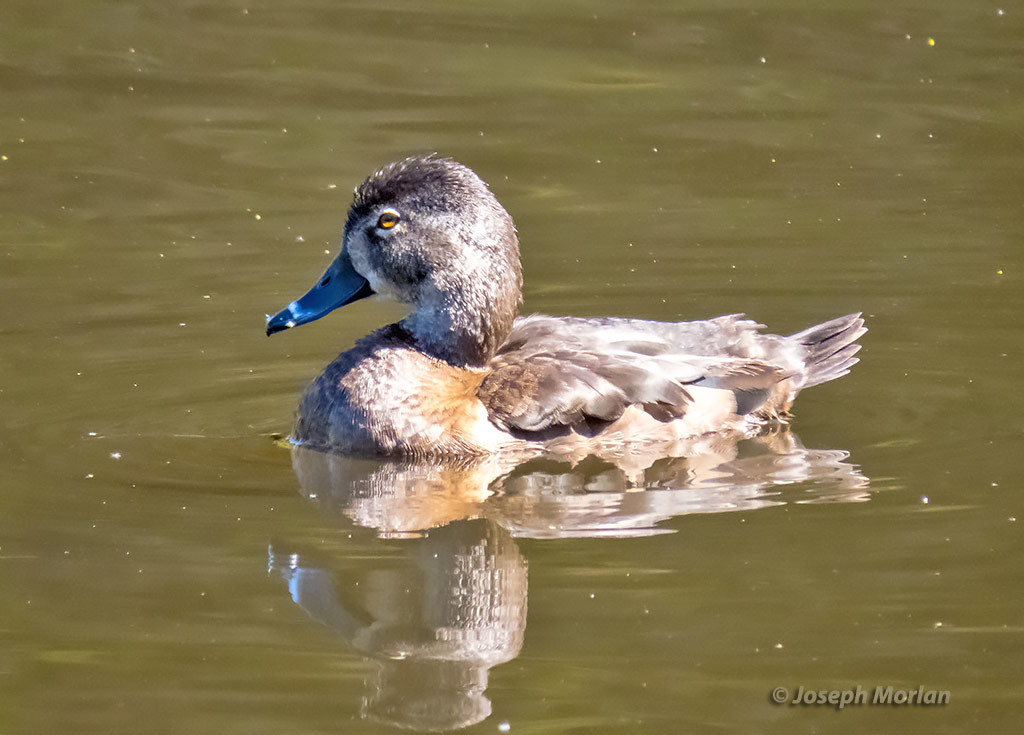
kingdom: Animalia
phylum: Chordata
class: Aves
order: Anseriformes
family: Anatidae
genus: Aythya
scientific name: Aythya collaris
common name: Ring-necked duck
